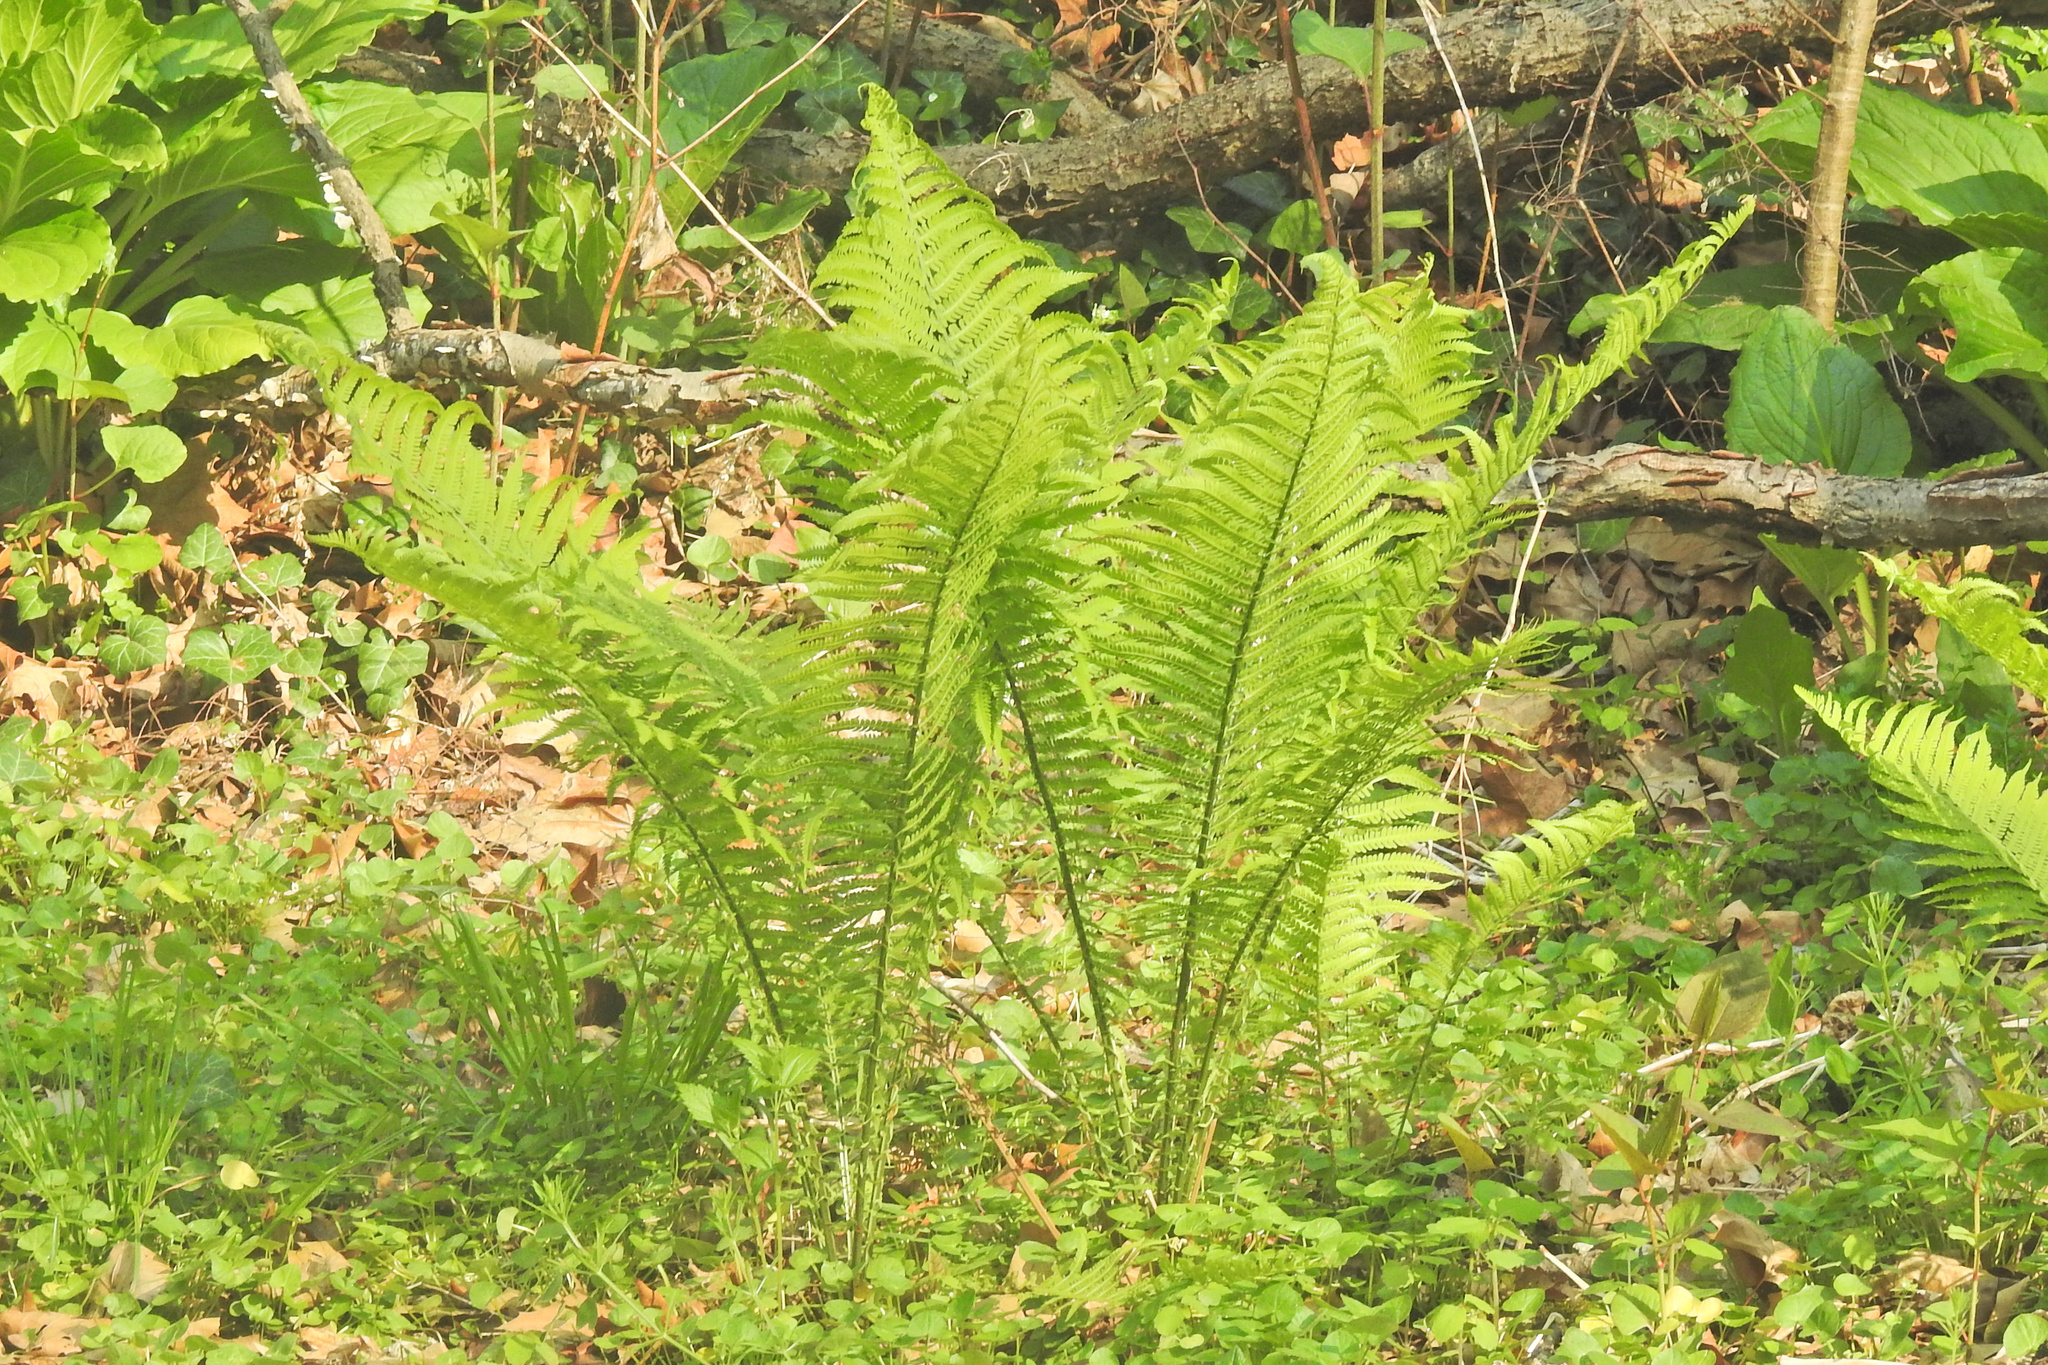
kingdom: Plantae
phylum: Tracheophyta
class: Polypodiopsida
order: Polypodiales
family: Onocleaceae
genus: Matteuccia
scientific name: Matteuccia struthiopteris
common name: Ostrich fern
